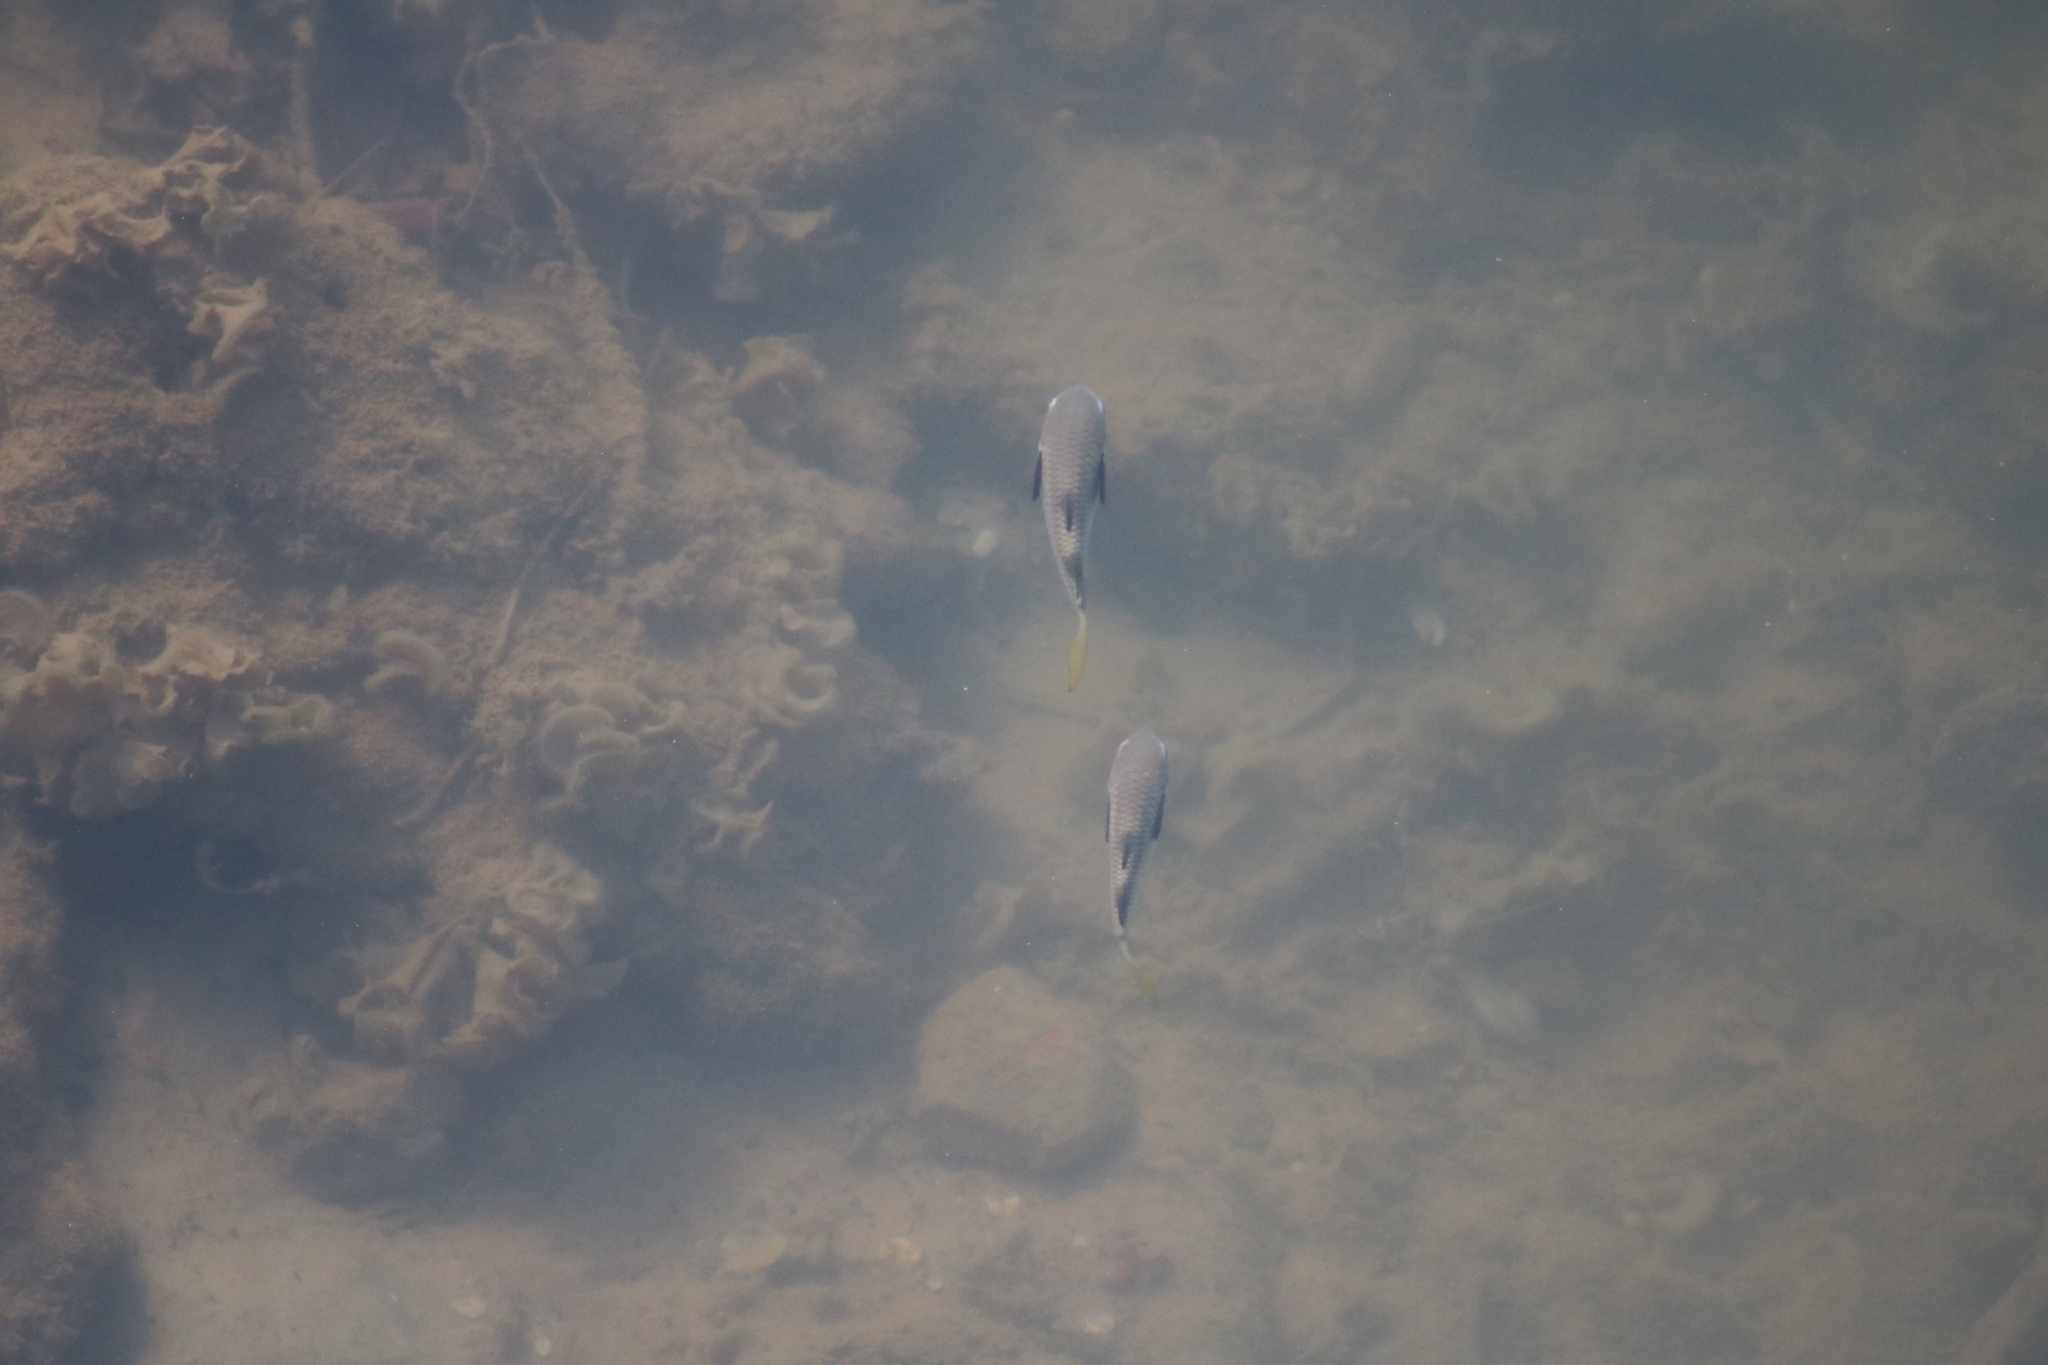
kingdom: Animalia
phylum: Chordata
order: Mugiliformes
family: Mugilidae
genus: Ellochelon
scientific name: Ellochelon vaigiensis
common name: Squaretail mullet
